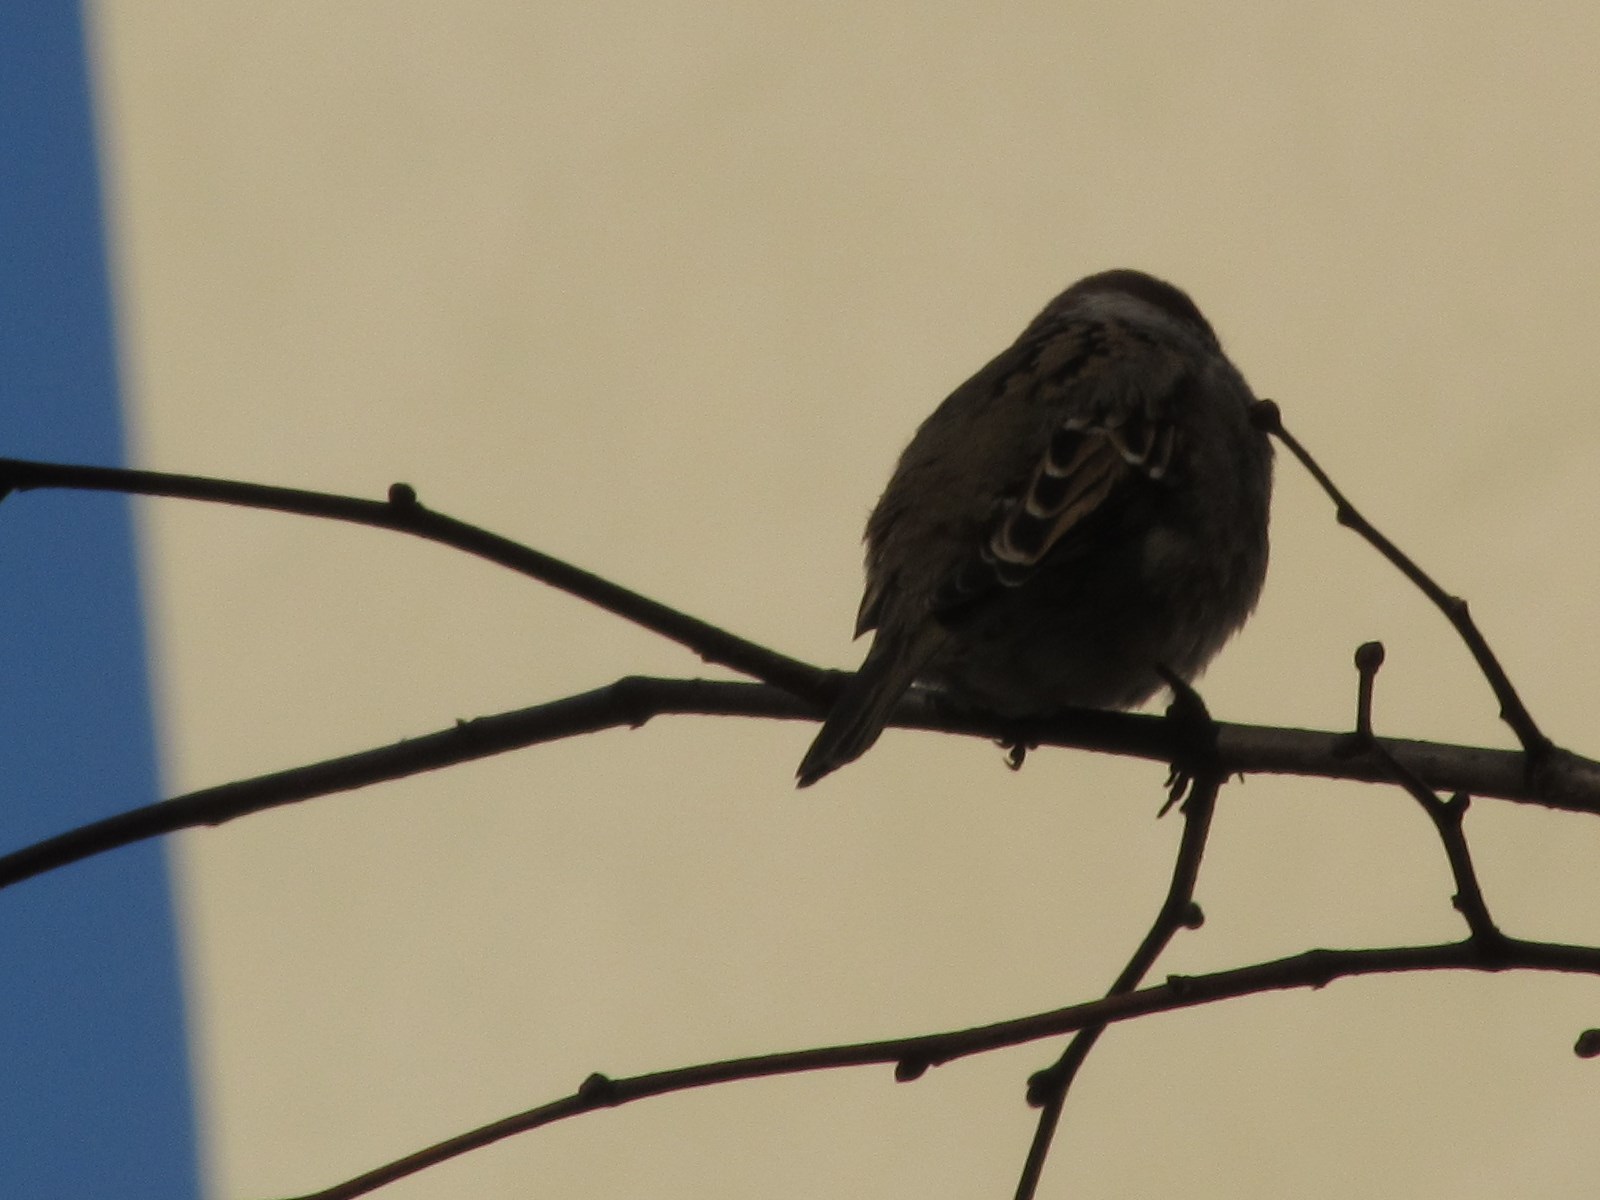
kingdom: Animalia
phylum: Chordata
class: Aves
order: Passeriformes
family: Passeridae
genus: Passer
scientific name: Passer montanus
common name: Eurasian tree sparrow
